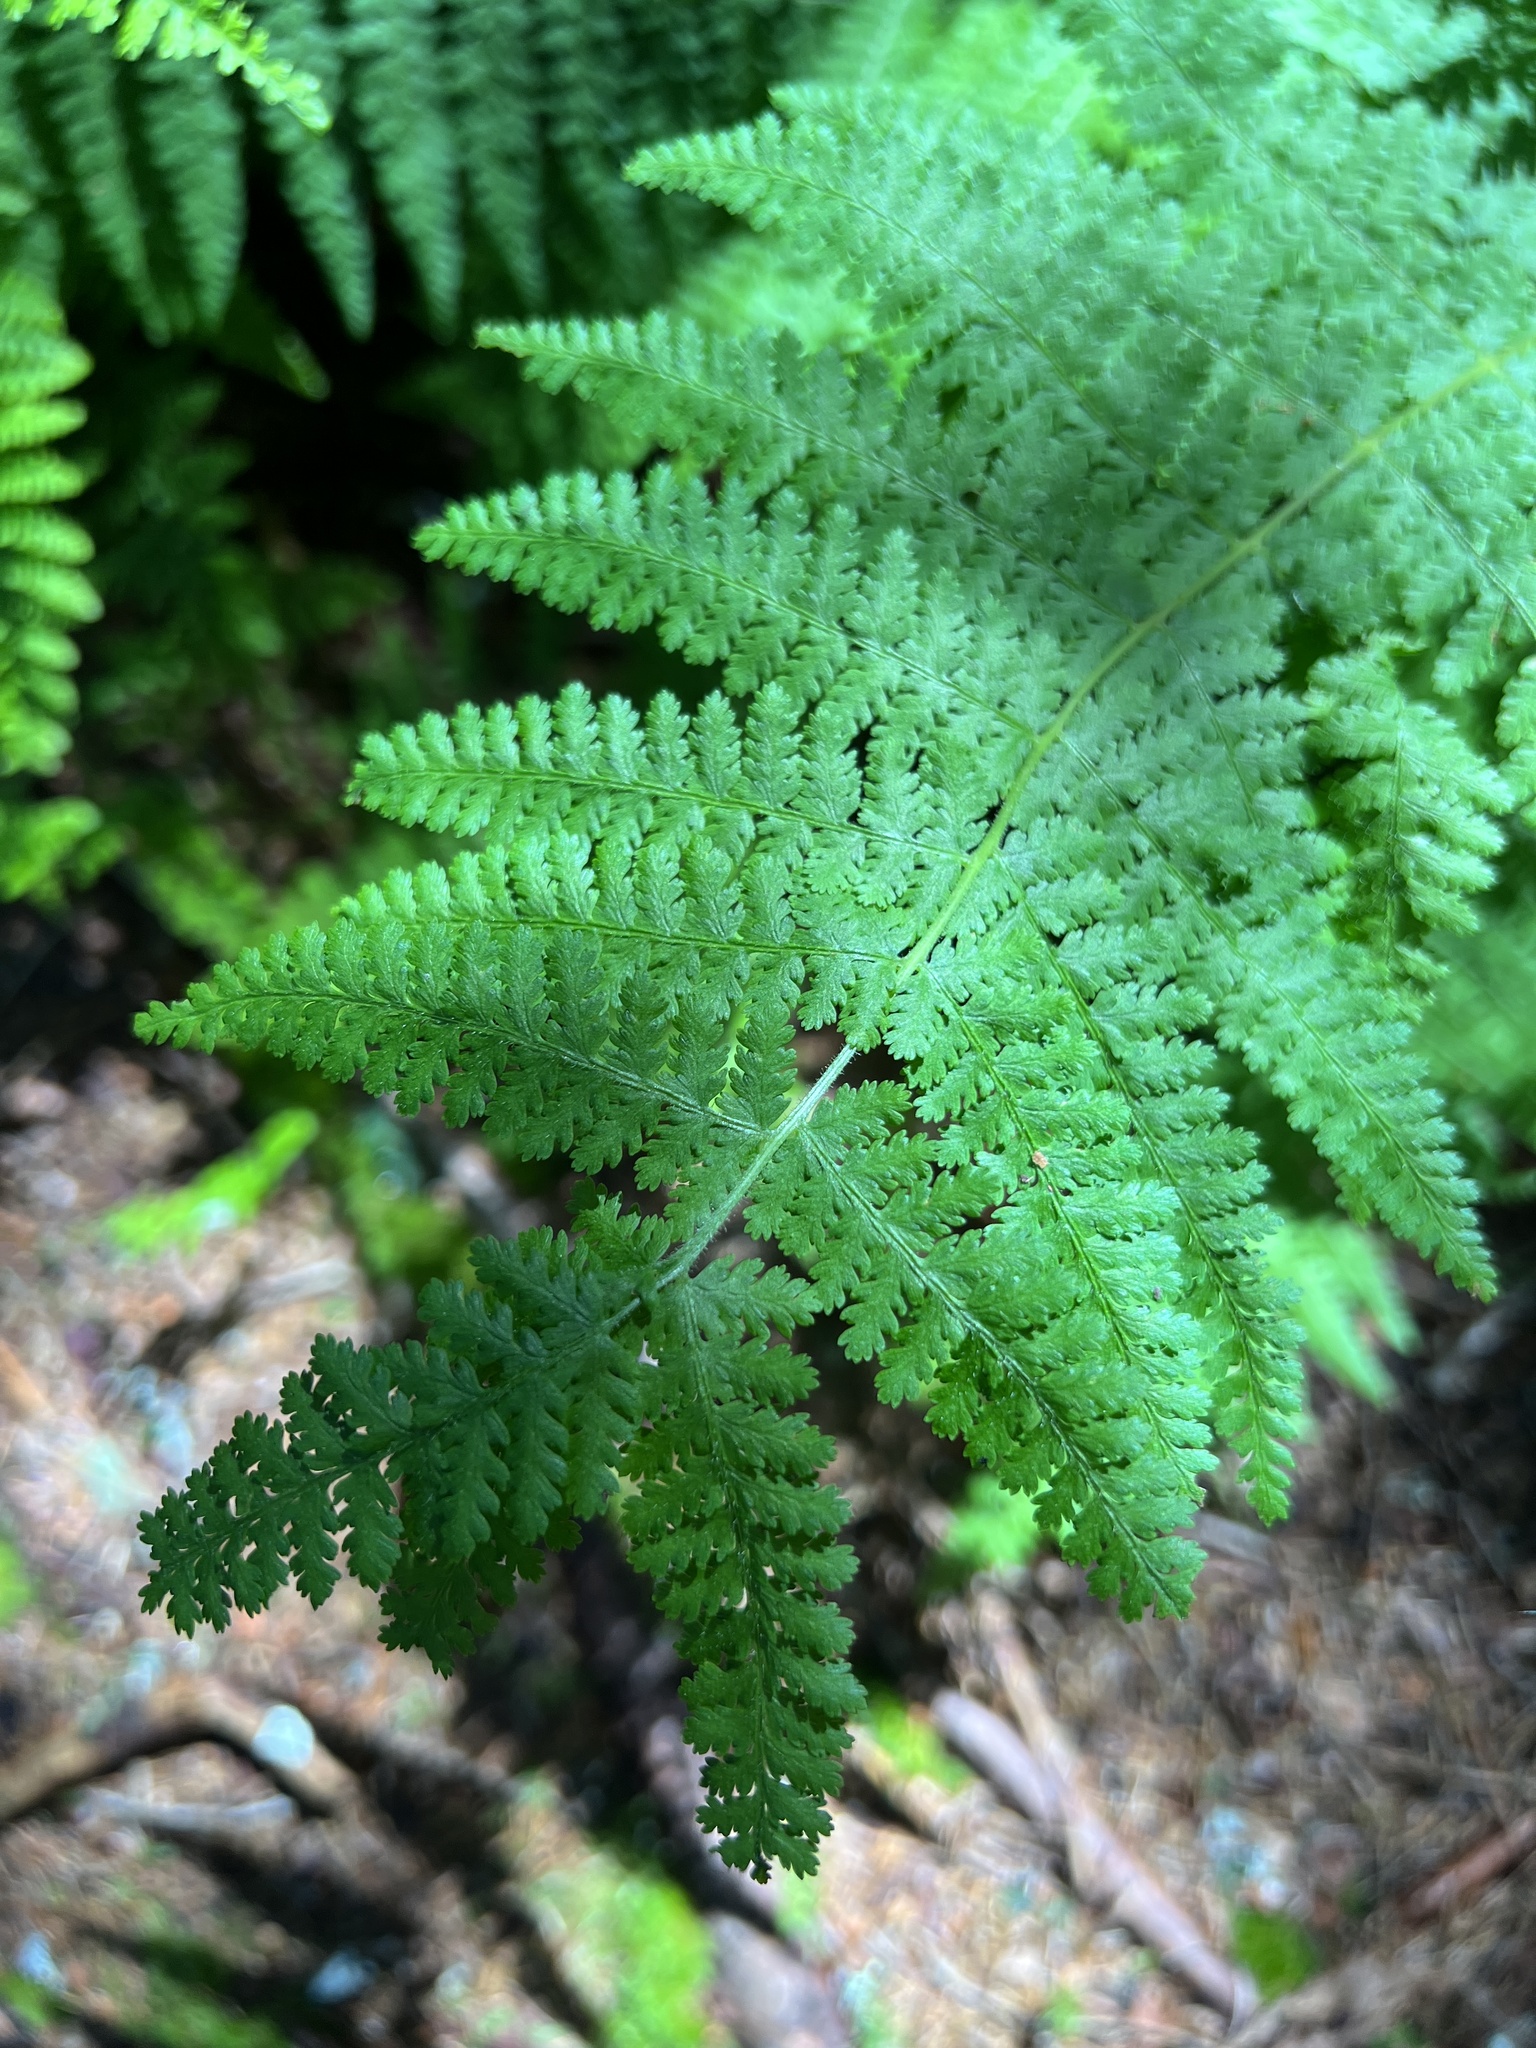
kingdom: Plantae
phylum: Tracheophyta
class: Polypodiopsida
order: Polypodiales
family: Dennstaedtiaceae
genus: Sitobolium
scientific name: Sitobolium punctilobum
